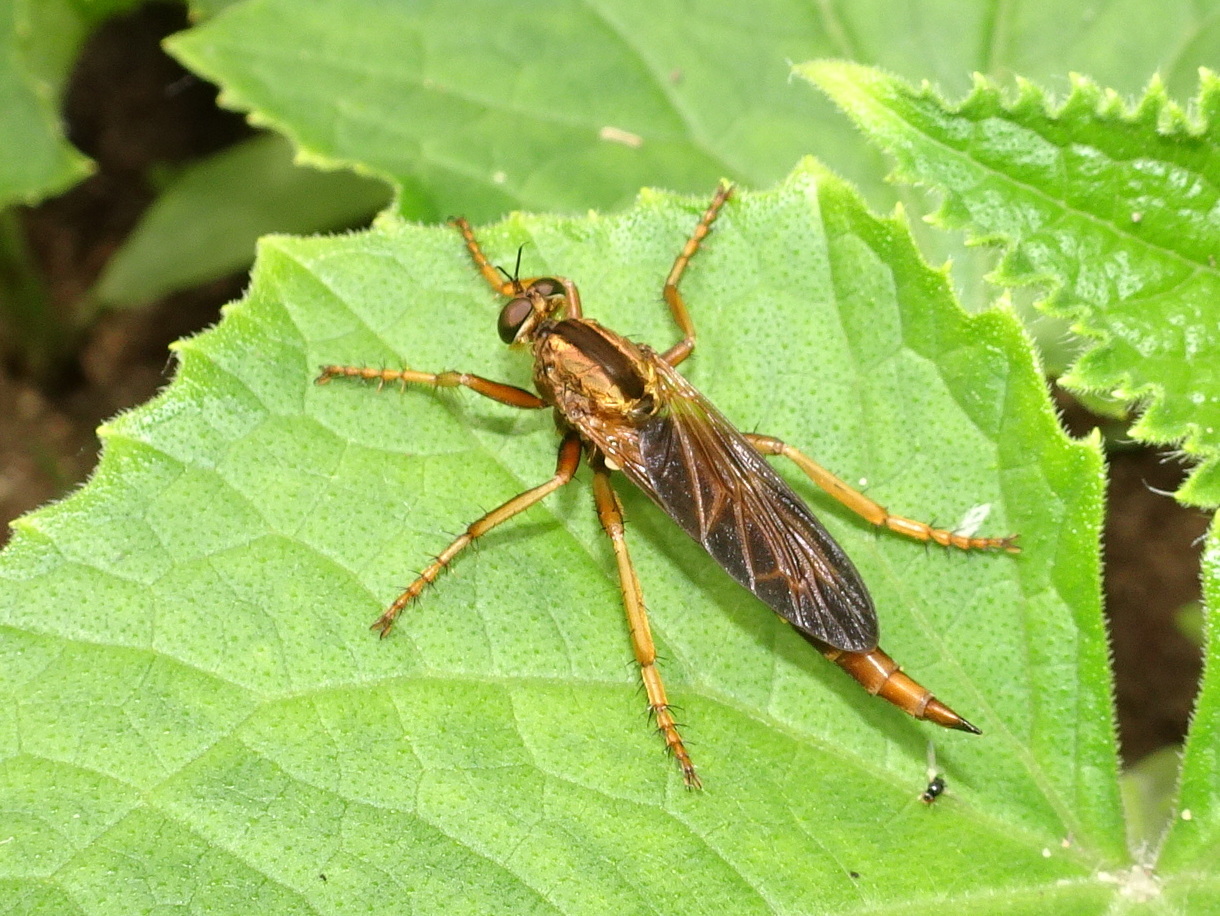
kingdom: Animalia
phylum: Arthropoda
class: Insecta
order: Diptera
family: Asilidae
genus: Asilus
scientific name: Asilus sericeus
